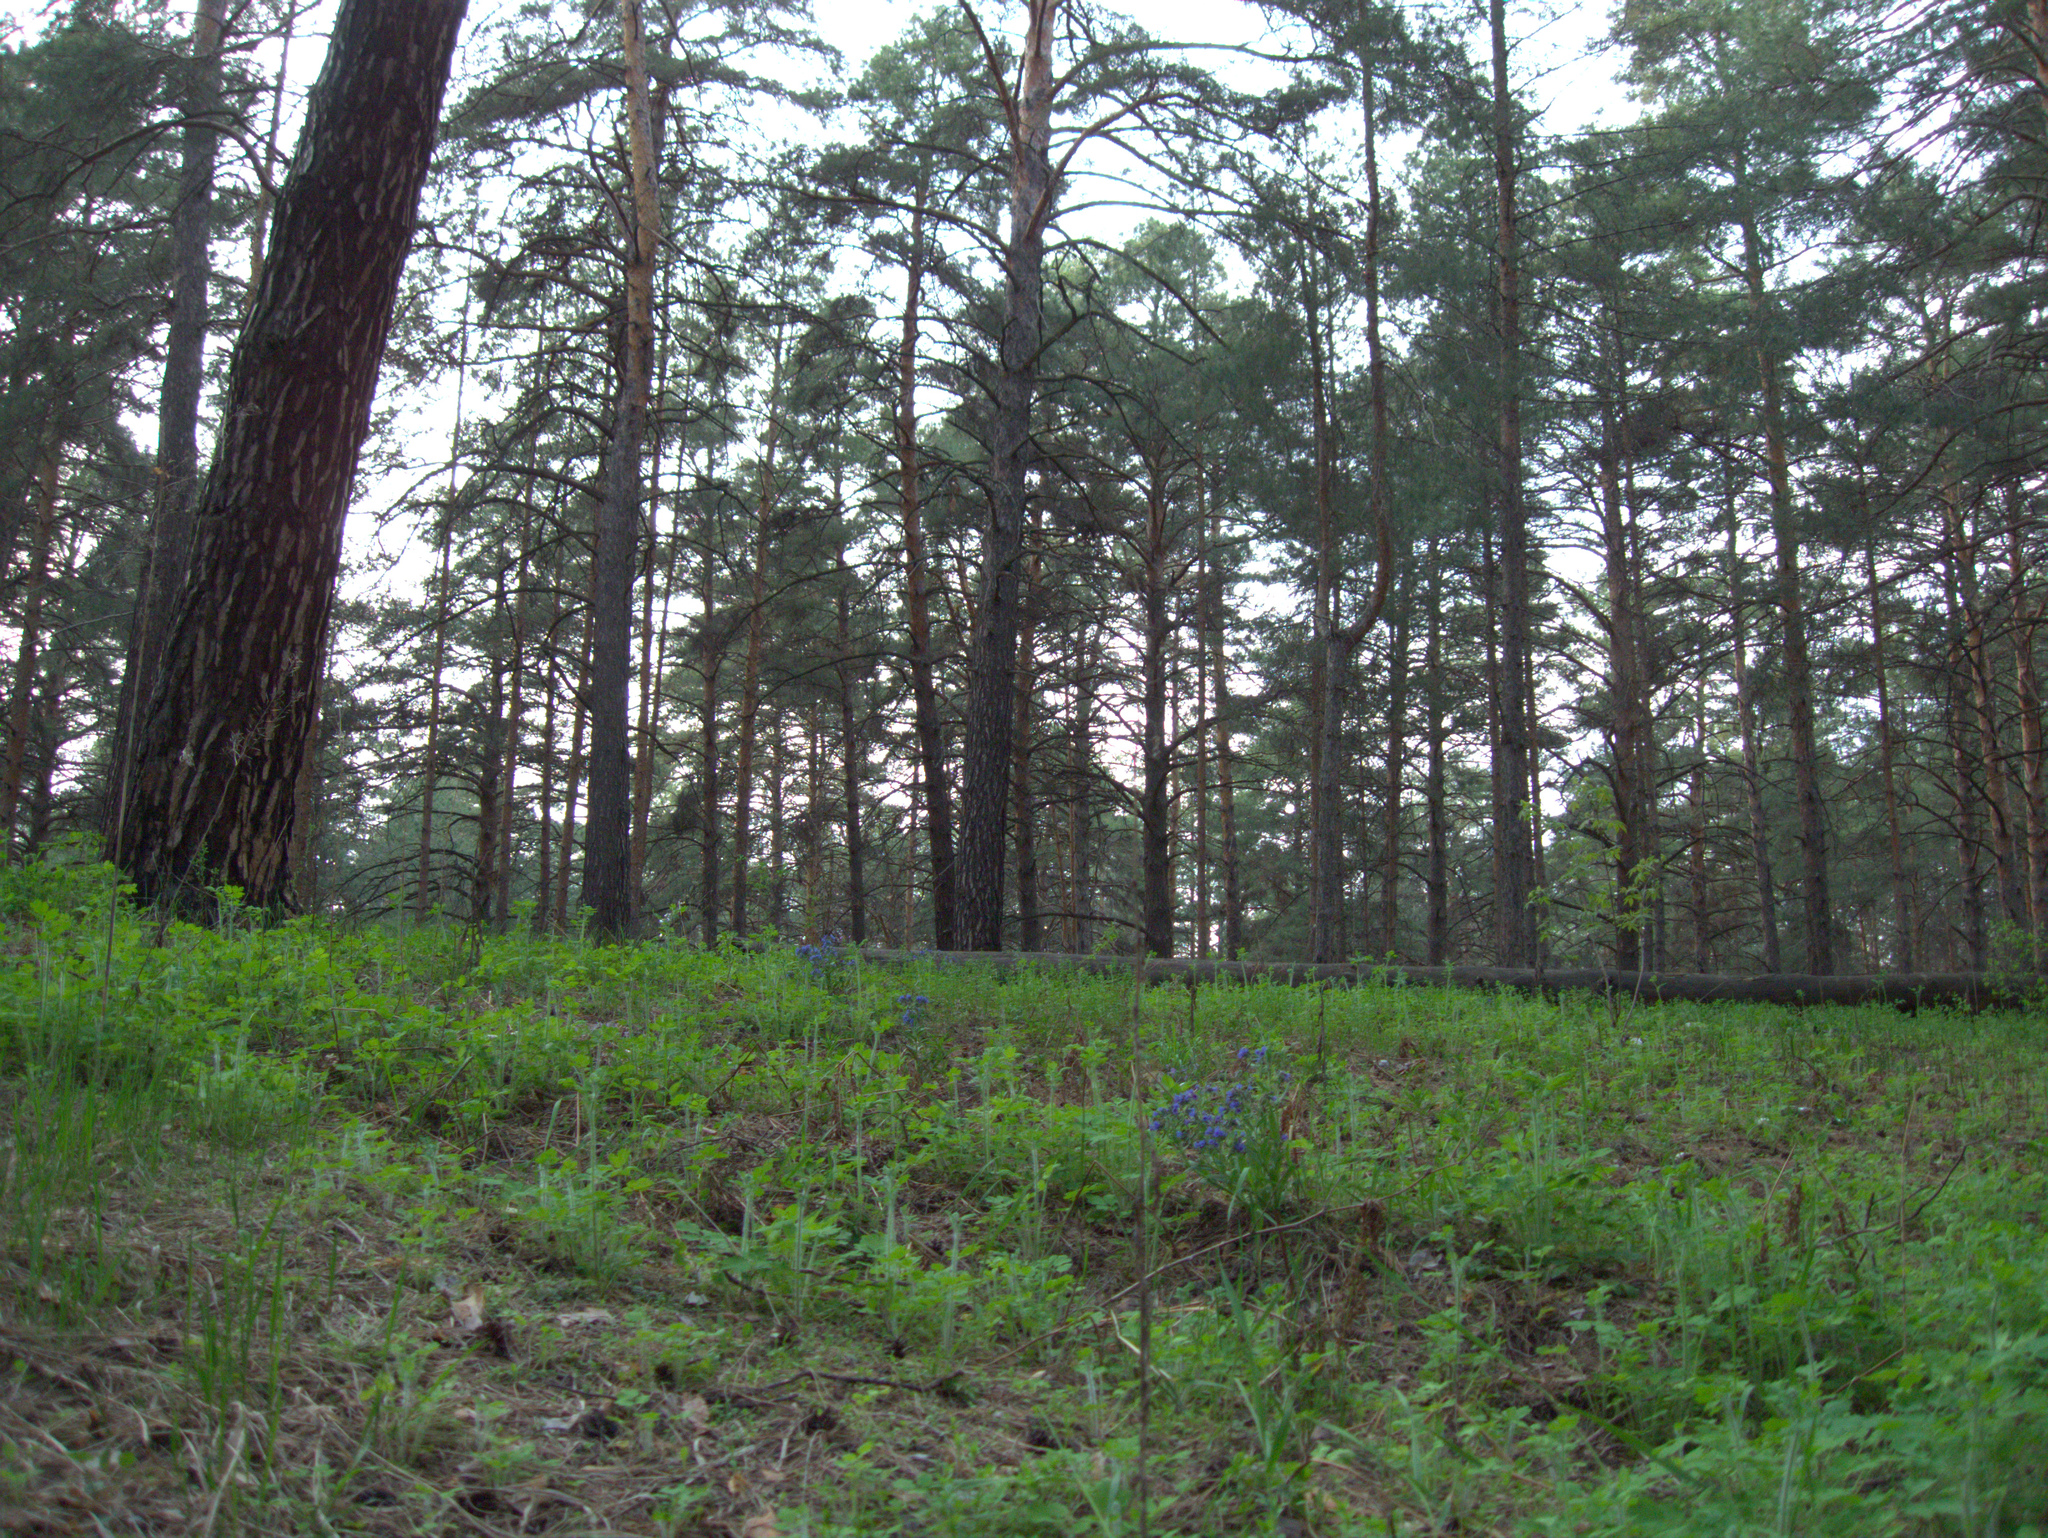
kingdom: Plantae
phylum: Tracheophyta
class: Magnoliopsida
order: Ranunculales
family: Papaveraceae
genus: Chelidonium
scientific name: Chelidonium majus
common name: Greater celandine
